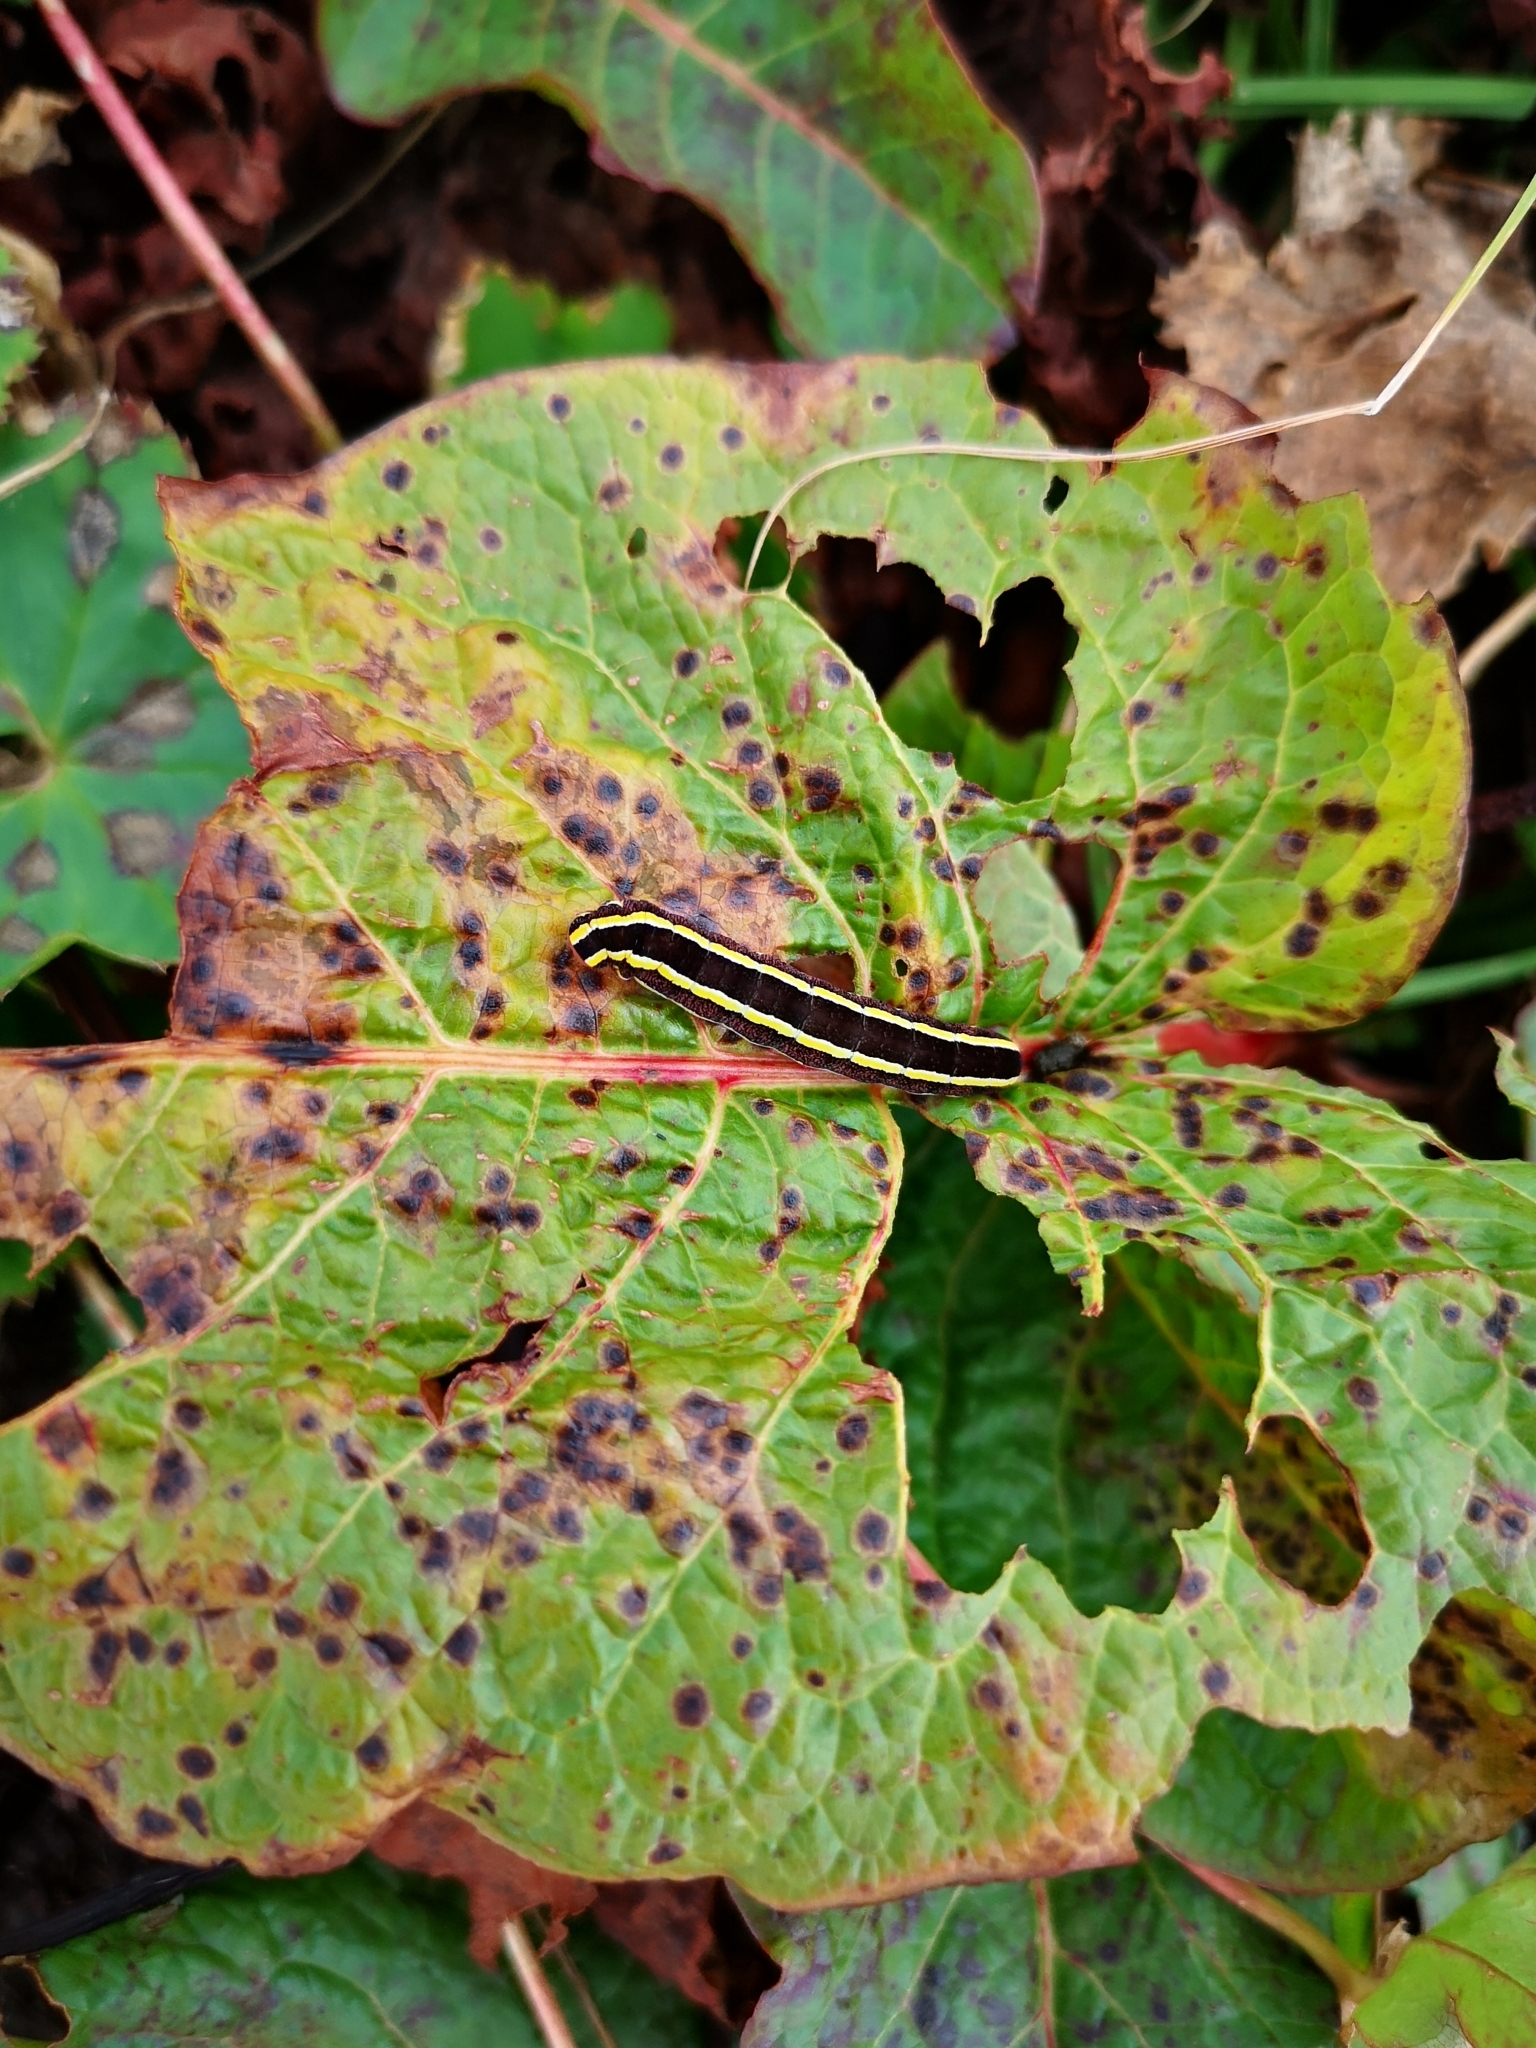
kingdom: Animalia
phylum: Arthropoda
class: Insecta
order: Lepidoptera
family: Noctuidae
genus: Ceramica
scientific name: Ceramica pisi
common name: Broom moth
